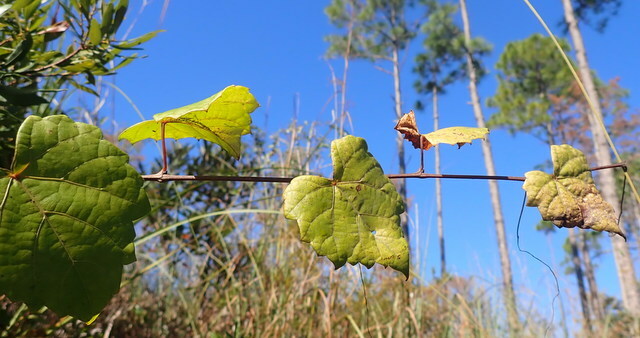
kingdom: Plantae
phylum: Tracheophyta
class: Magnoliopsida
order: Vitales
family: Vitaceae
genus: Vitis
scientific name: Vitis rotundifolia
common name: Muscadine grape
